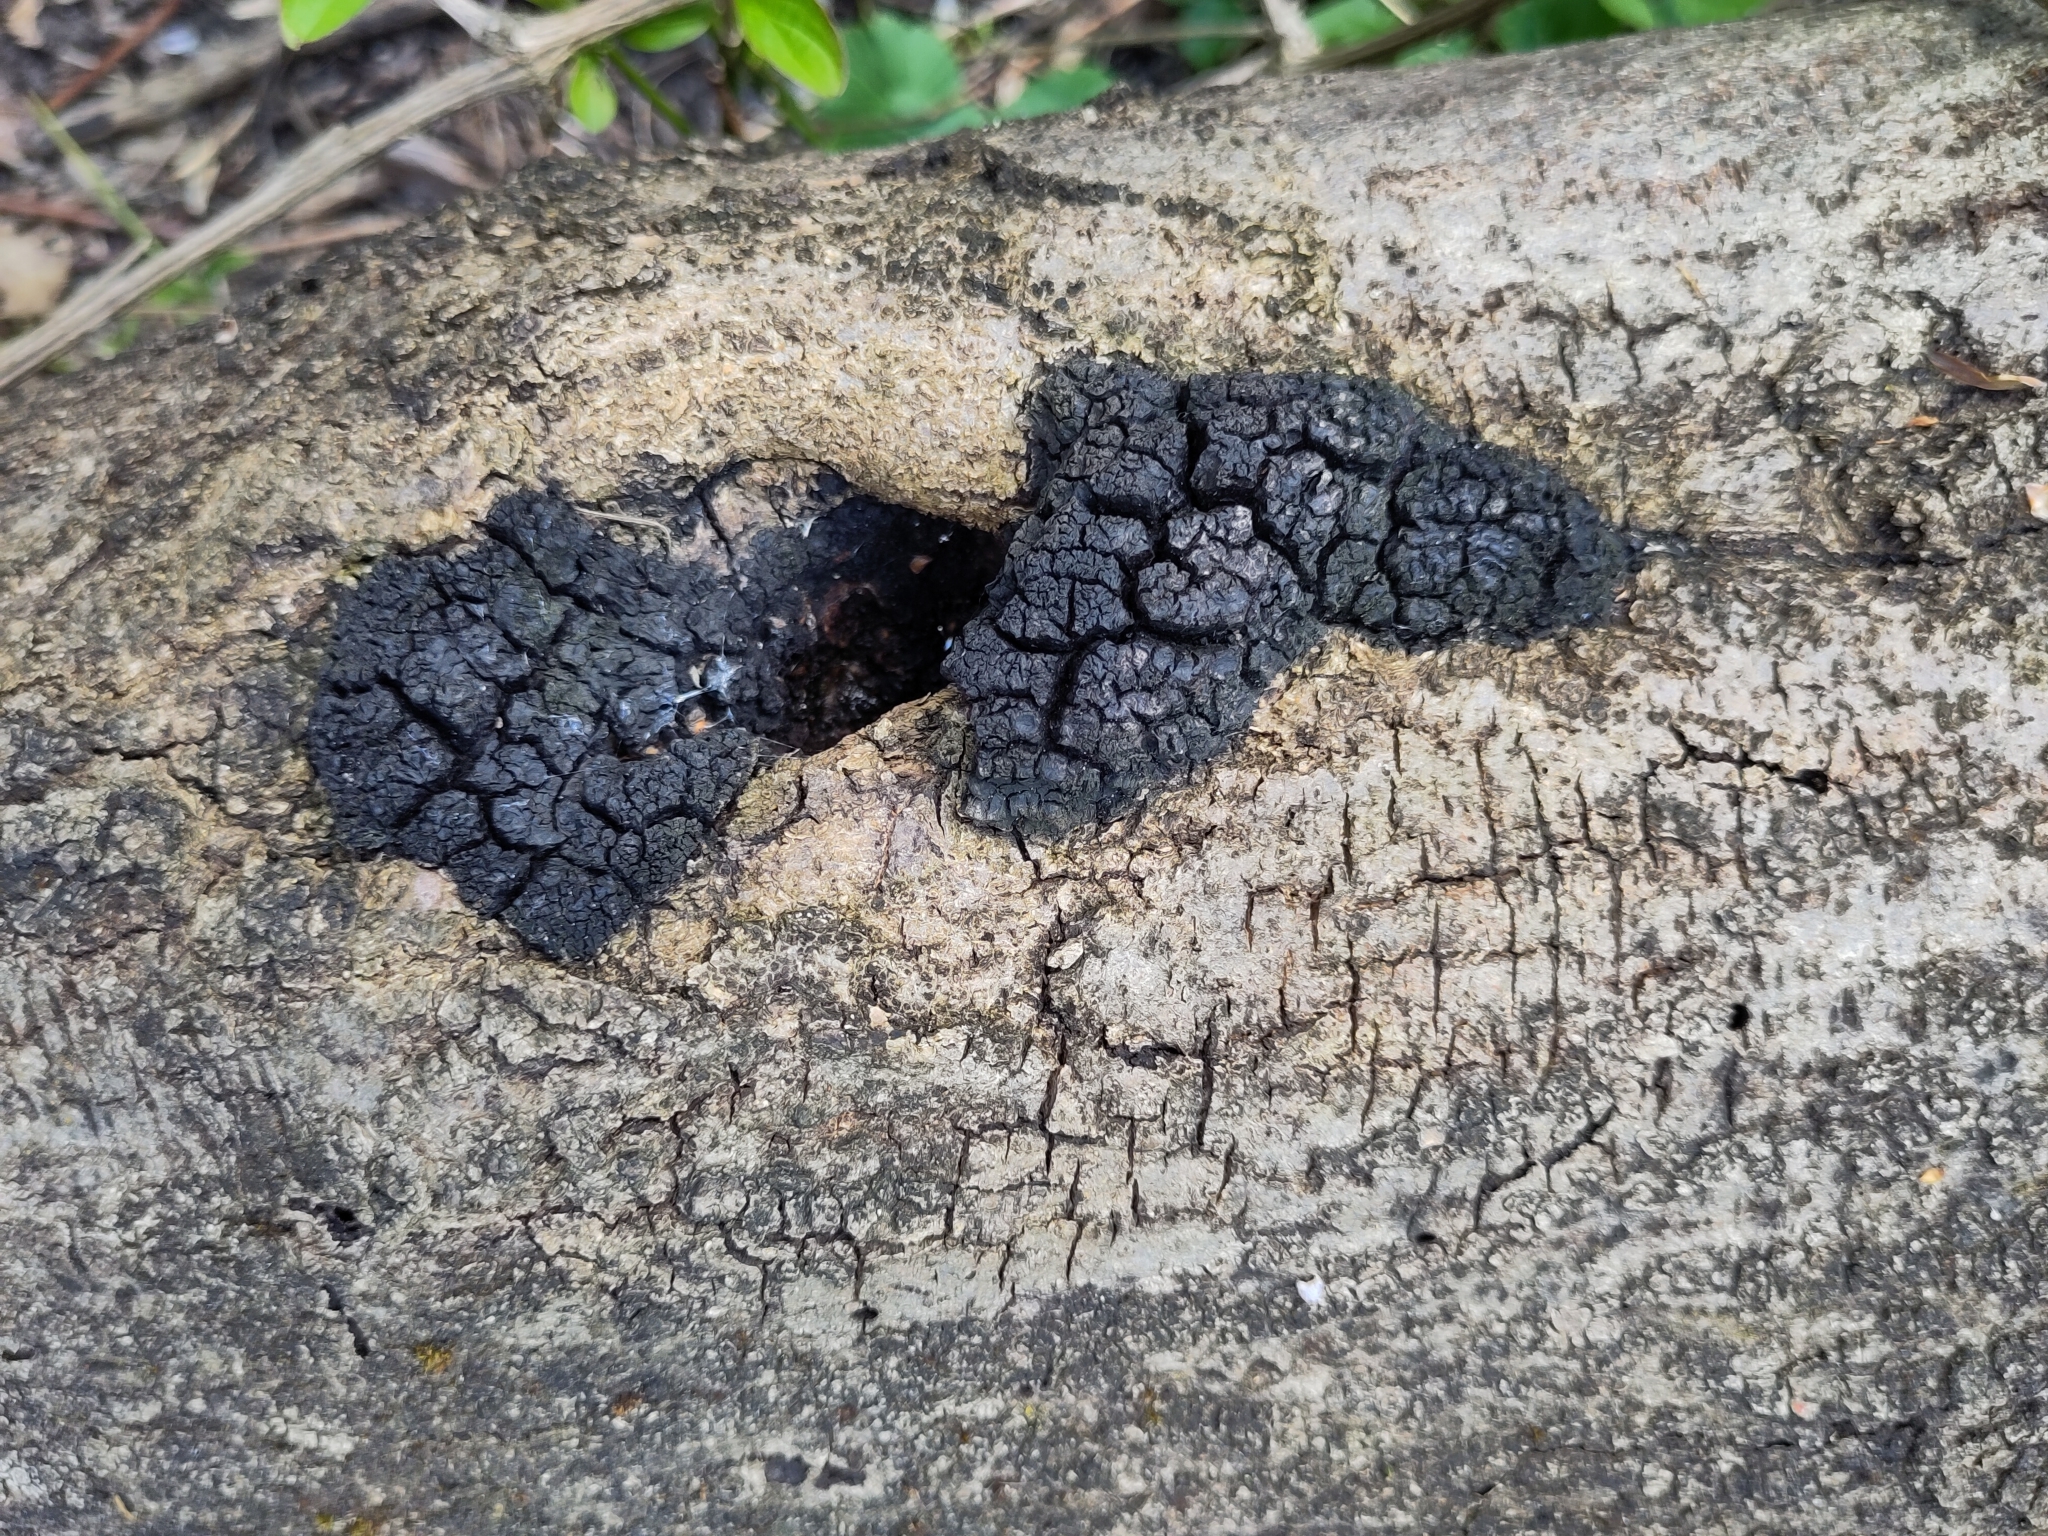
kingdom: Fungi
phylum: Basidiomycota
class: Agaricomycetes
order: Hymenochaetales
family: Hymenochaetaceae
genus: Inonotus
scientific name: Inonotus nidus-pici
